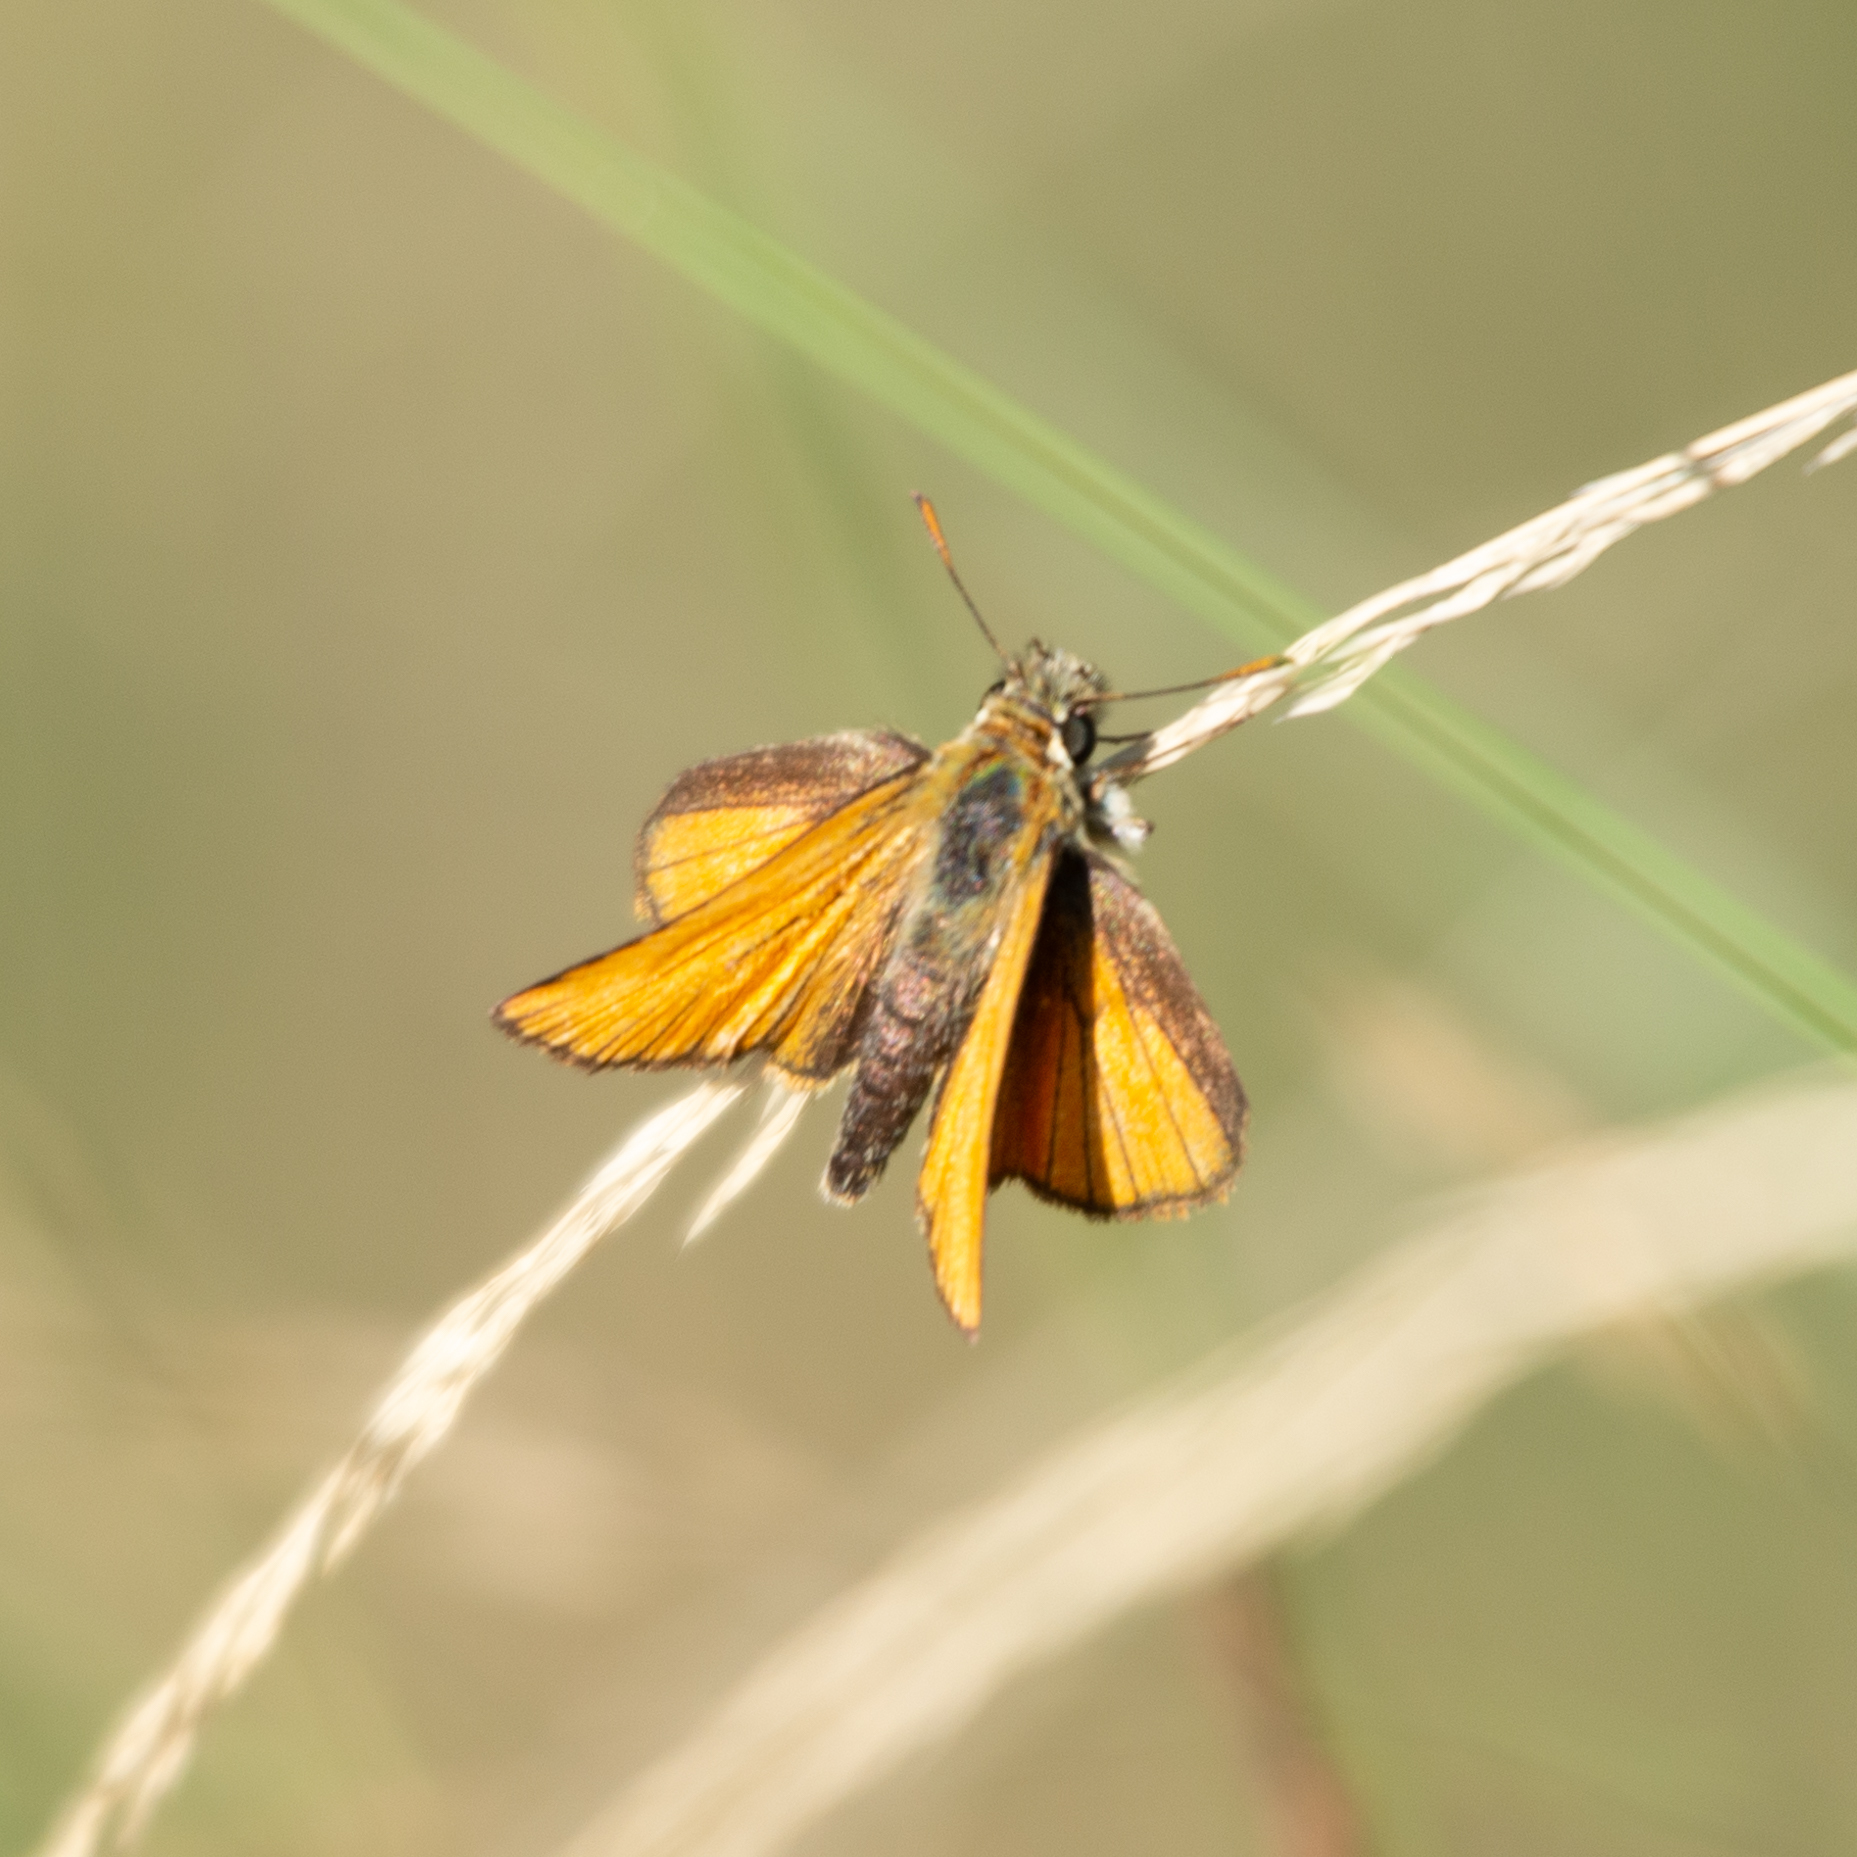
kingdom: Animalia
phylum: Arthropoda
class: Insecta
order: Lepidoptera
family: Hesperiidae
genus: Thymelicus
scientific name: Thymelicus sylvestris
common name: Small skipper
